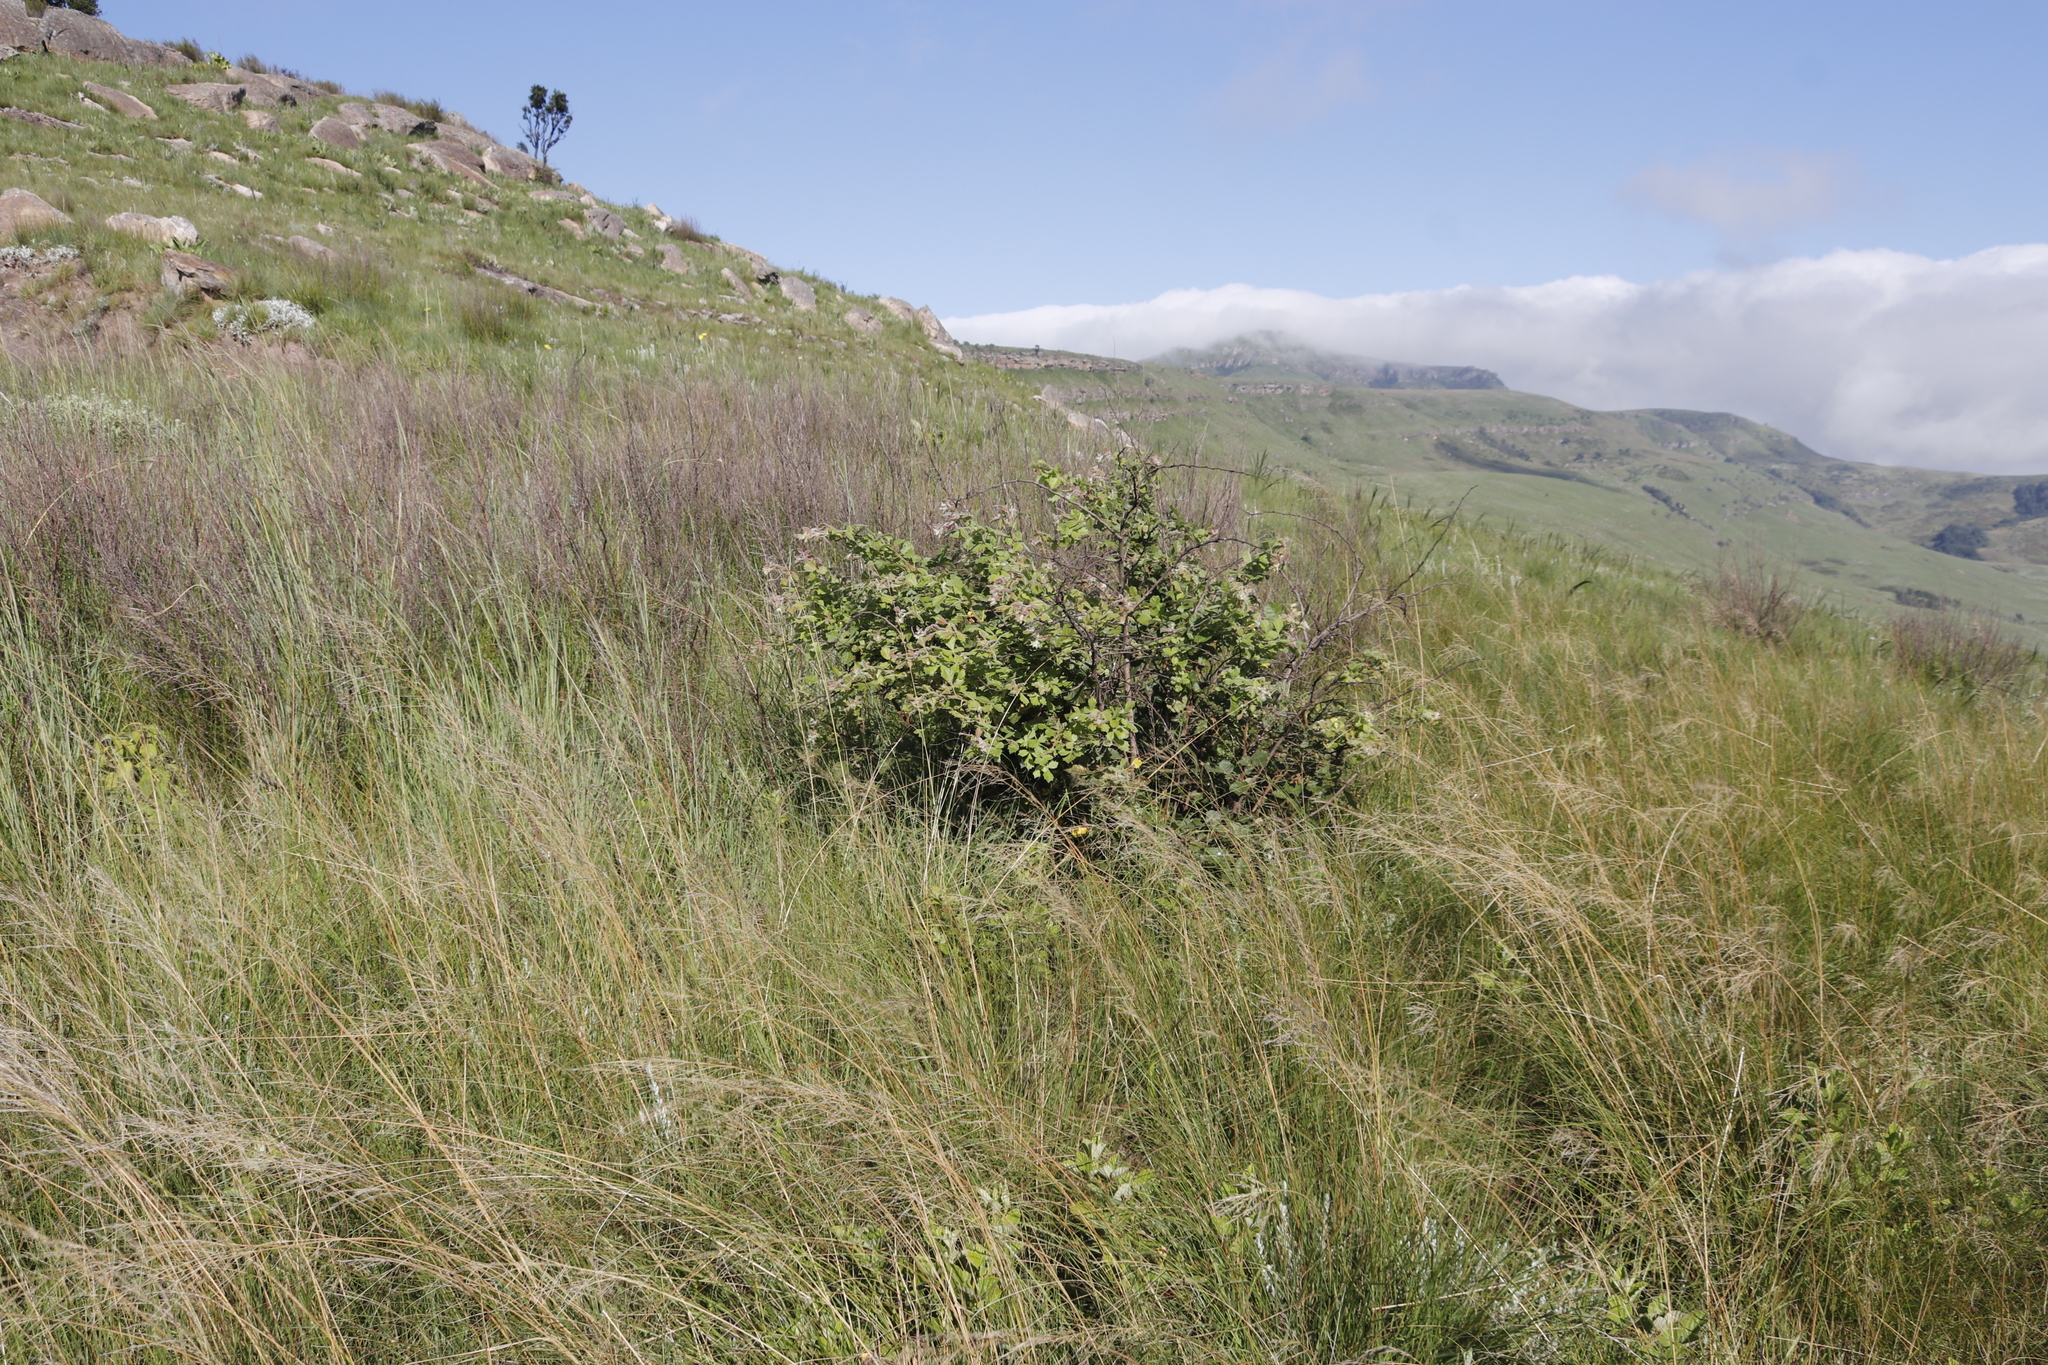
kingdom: Plantae
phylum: Tracheophyta
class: Magnoliopsida
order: Sapindales
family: Anacardiaceae
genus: Searsia
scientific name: Searsia dentata
